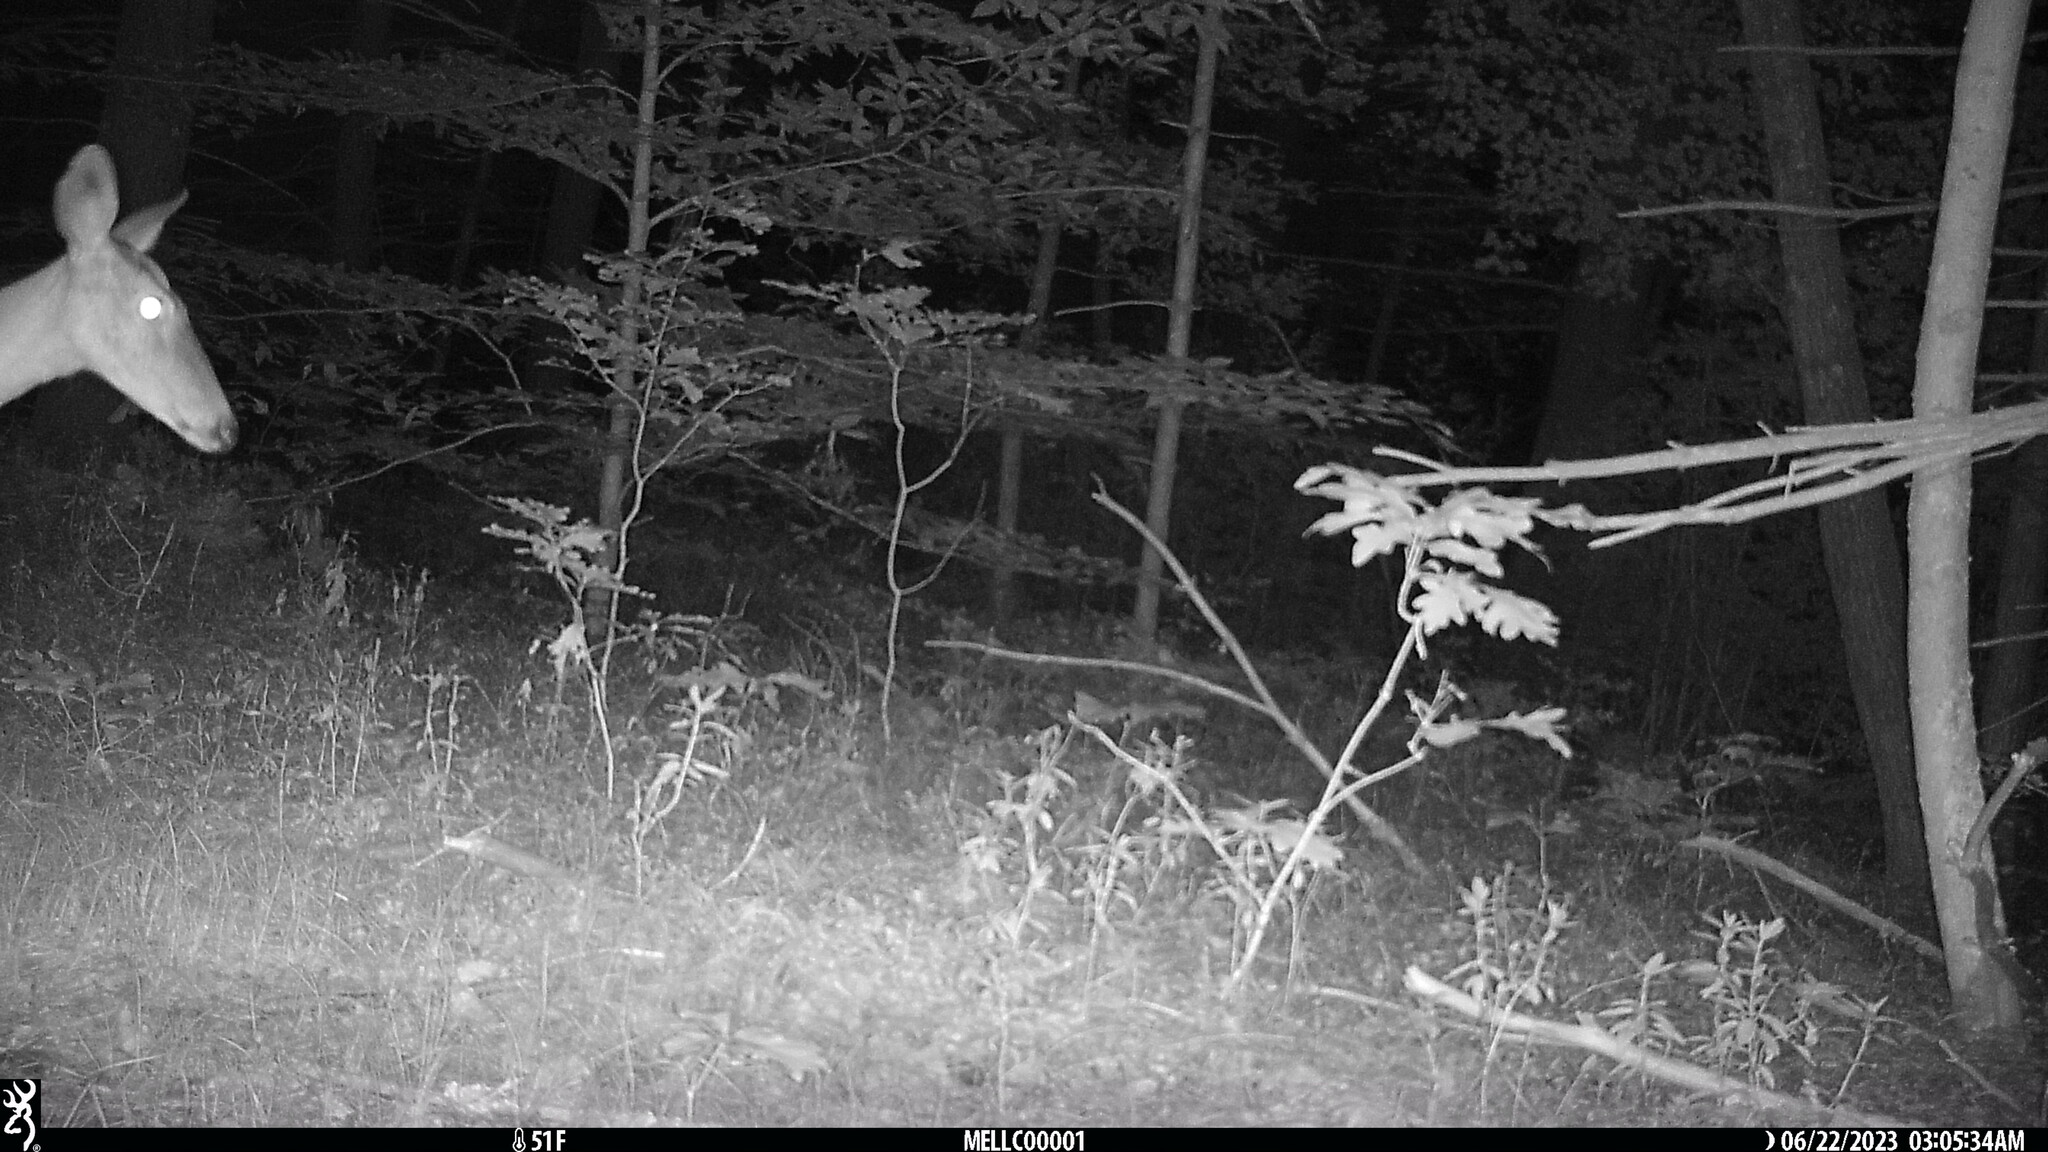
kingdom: Animalia
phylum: Chordata
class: Mammalia
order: Artiodactyla
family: Cervidae
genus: Odocoileus
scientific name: Odocoileus virginianus
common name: White-tailed deer
